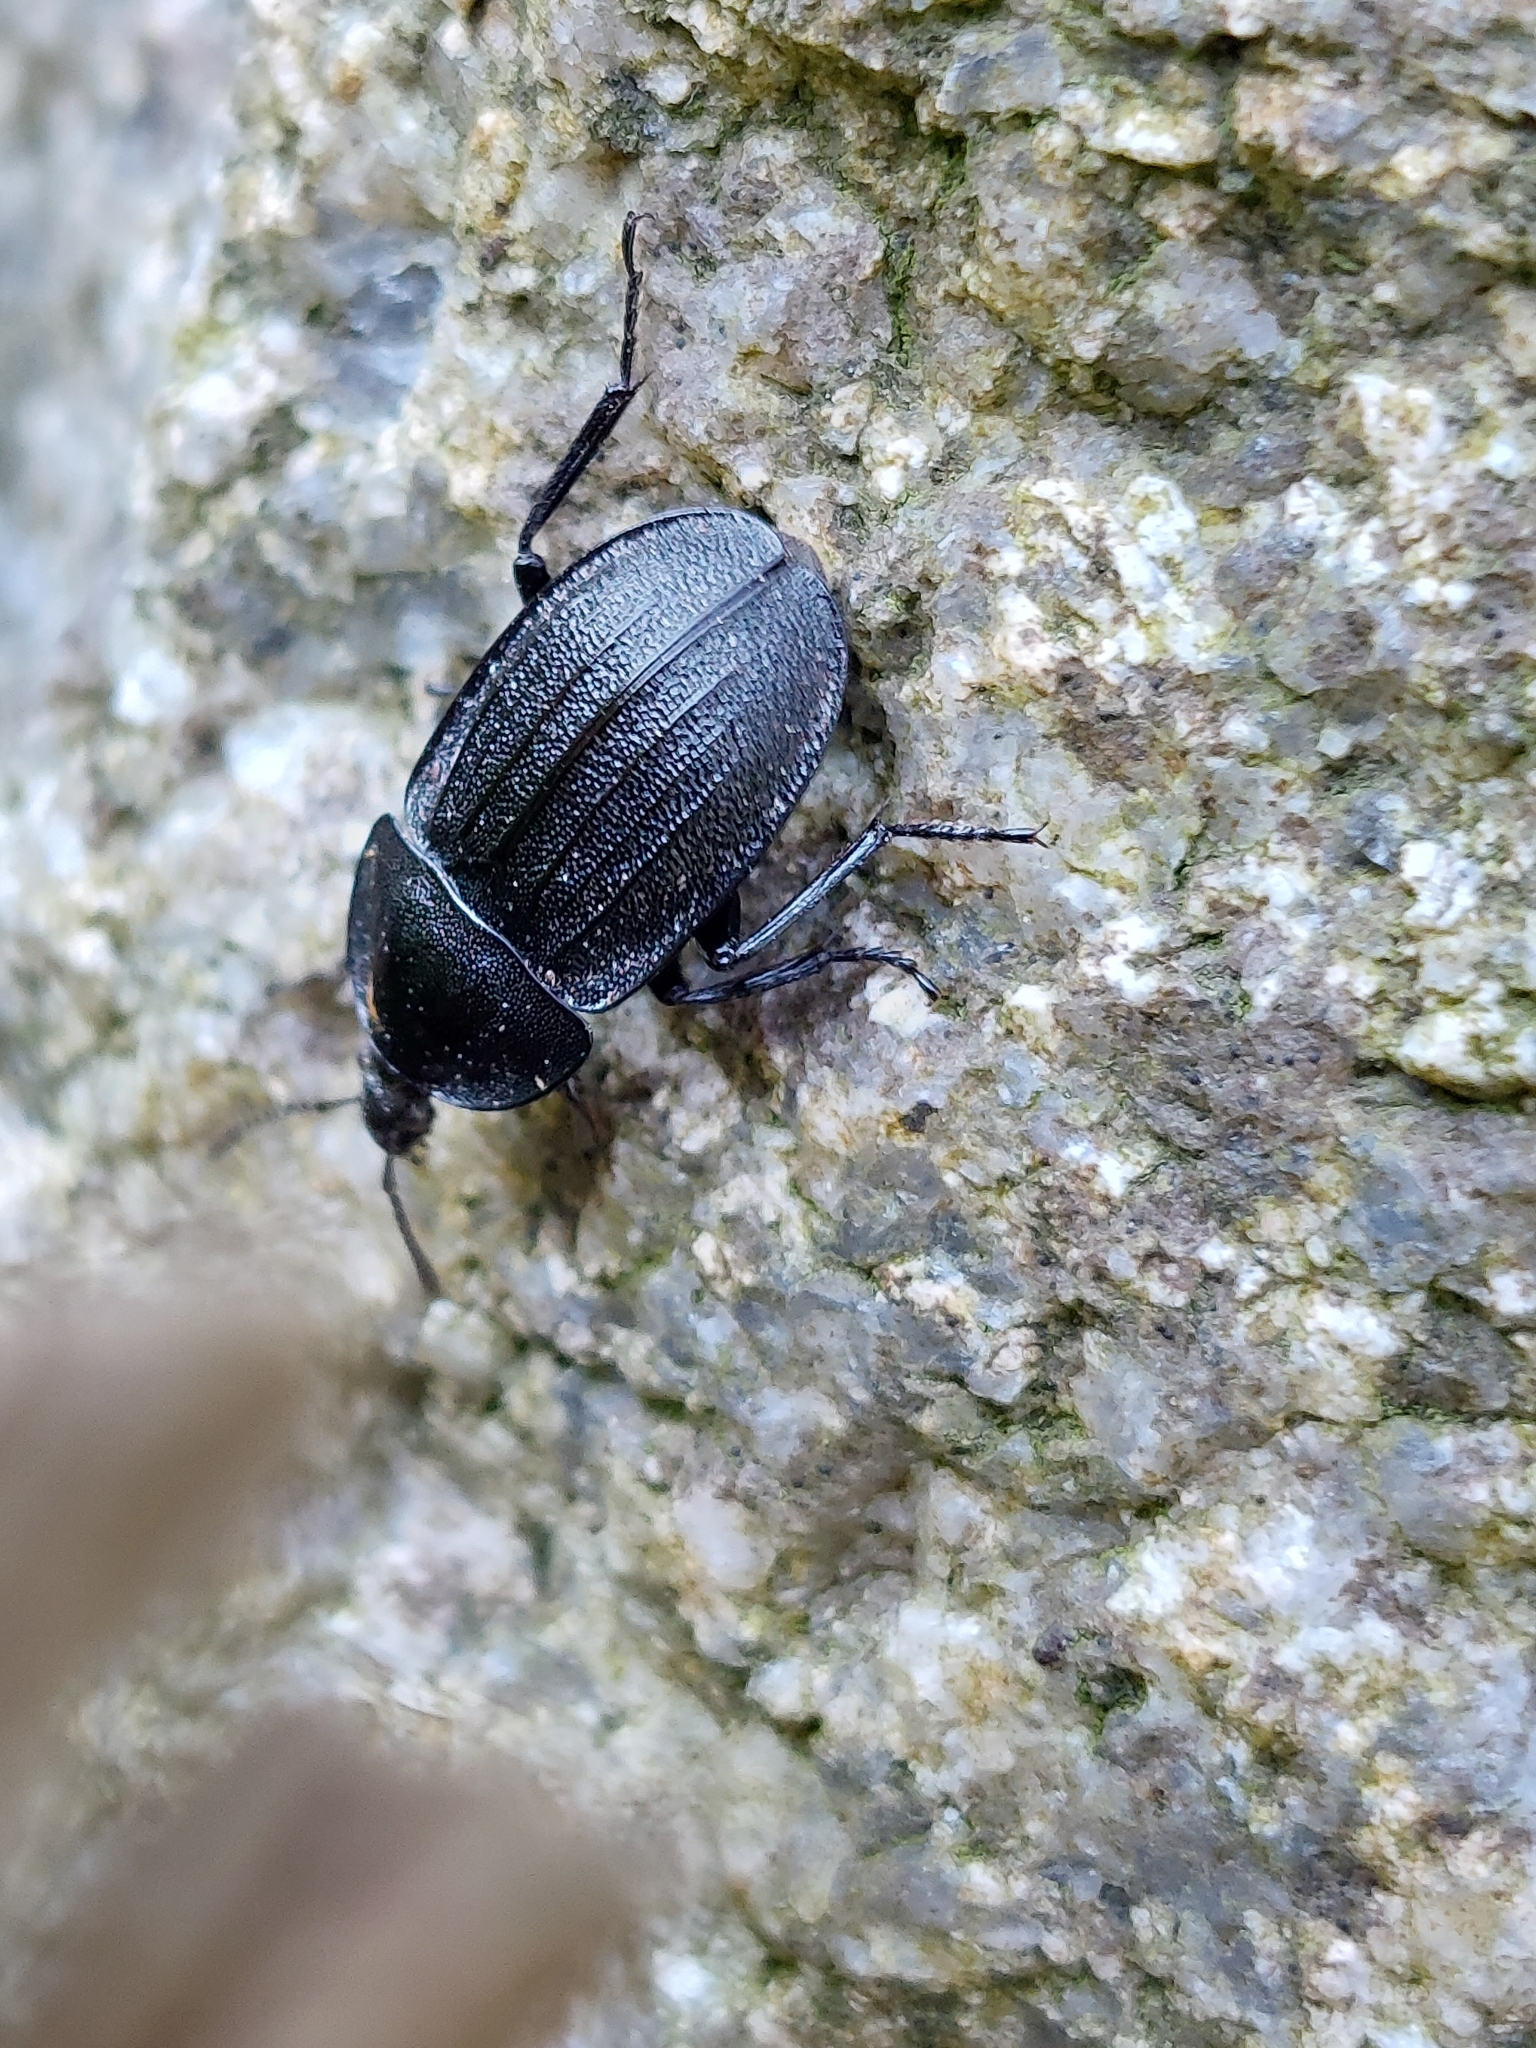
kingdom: Animalia
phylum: Arthropoda
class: Insecta
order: Coleoptera
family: Staphylinidae
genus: Silpha
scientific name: Silpha atrata
